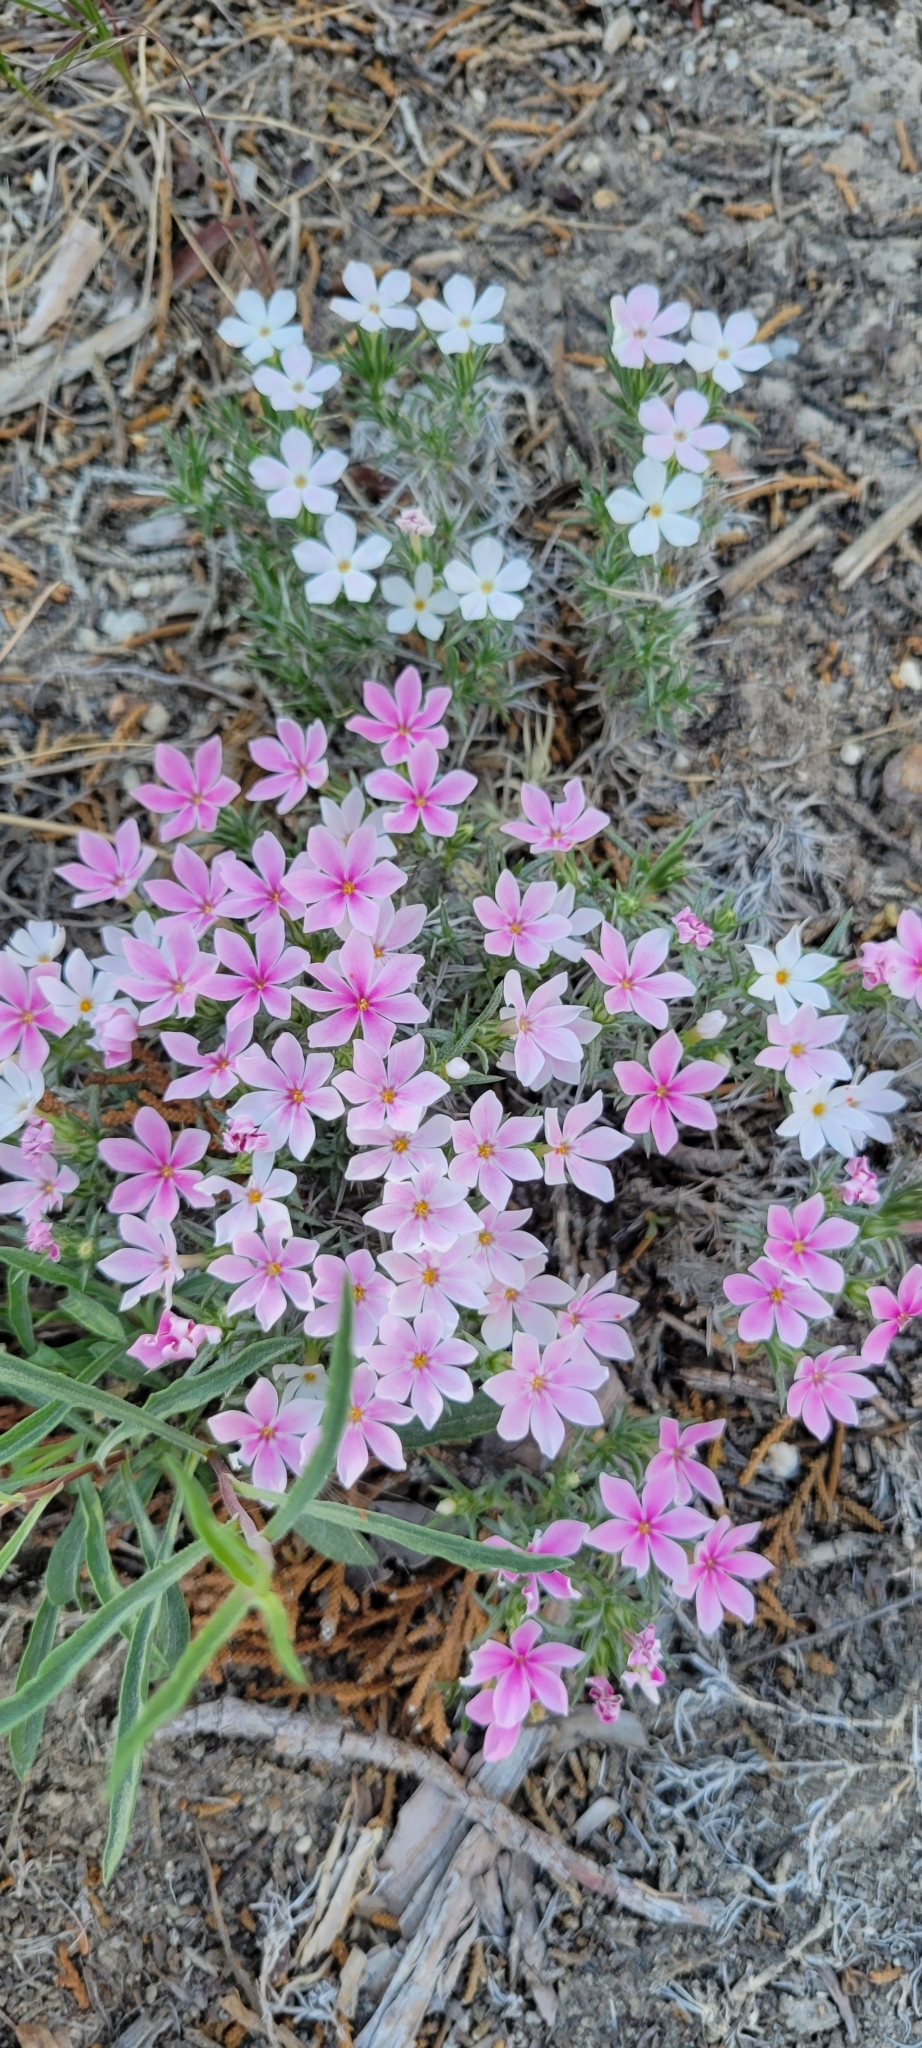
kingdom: Plantae
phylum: Tracheophyta
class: Magnoliopsida
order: Ericales
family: Polemoniaceae
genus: Phlox
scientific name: Phlox austromontana
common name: Desert phlox
